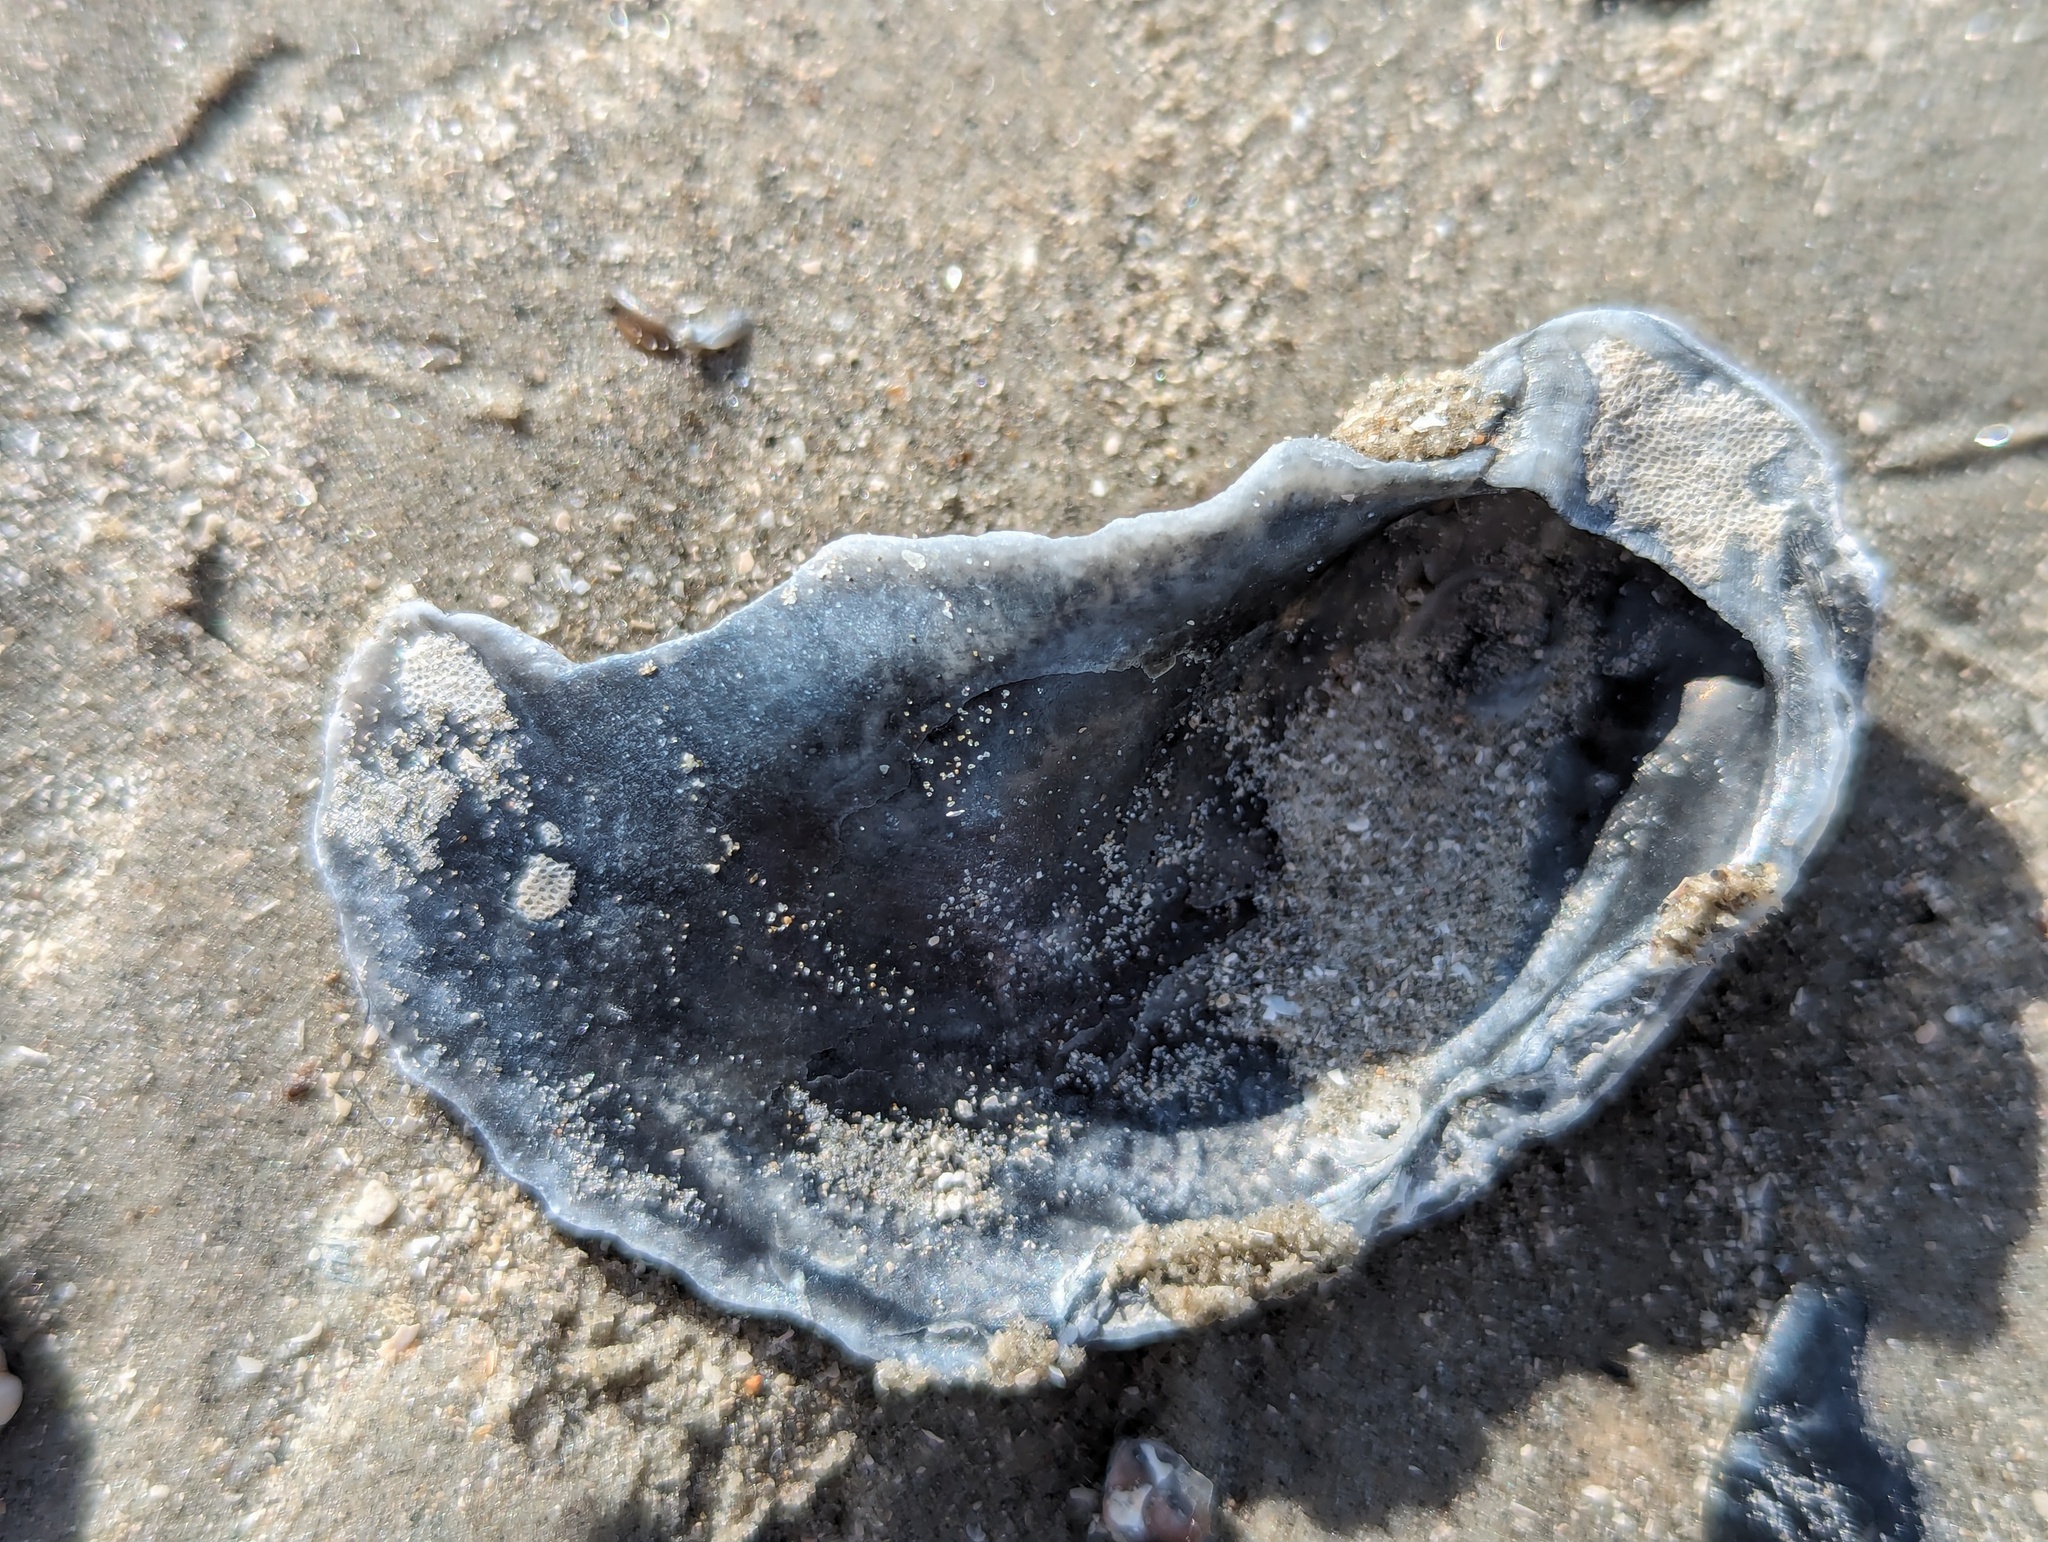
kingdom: Animalia
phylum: Mollusca
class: Bivalvia
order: Ostreida
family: Ostreidae
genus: Crassostrea
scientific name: Crassostrea virginica
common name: American oyster
